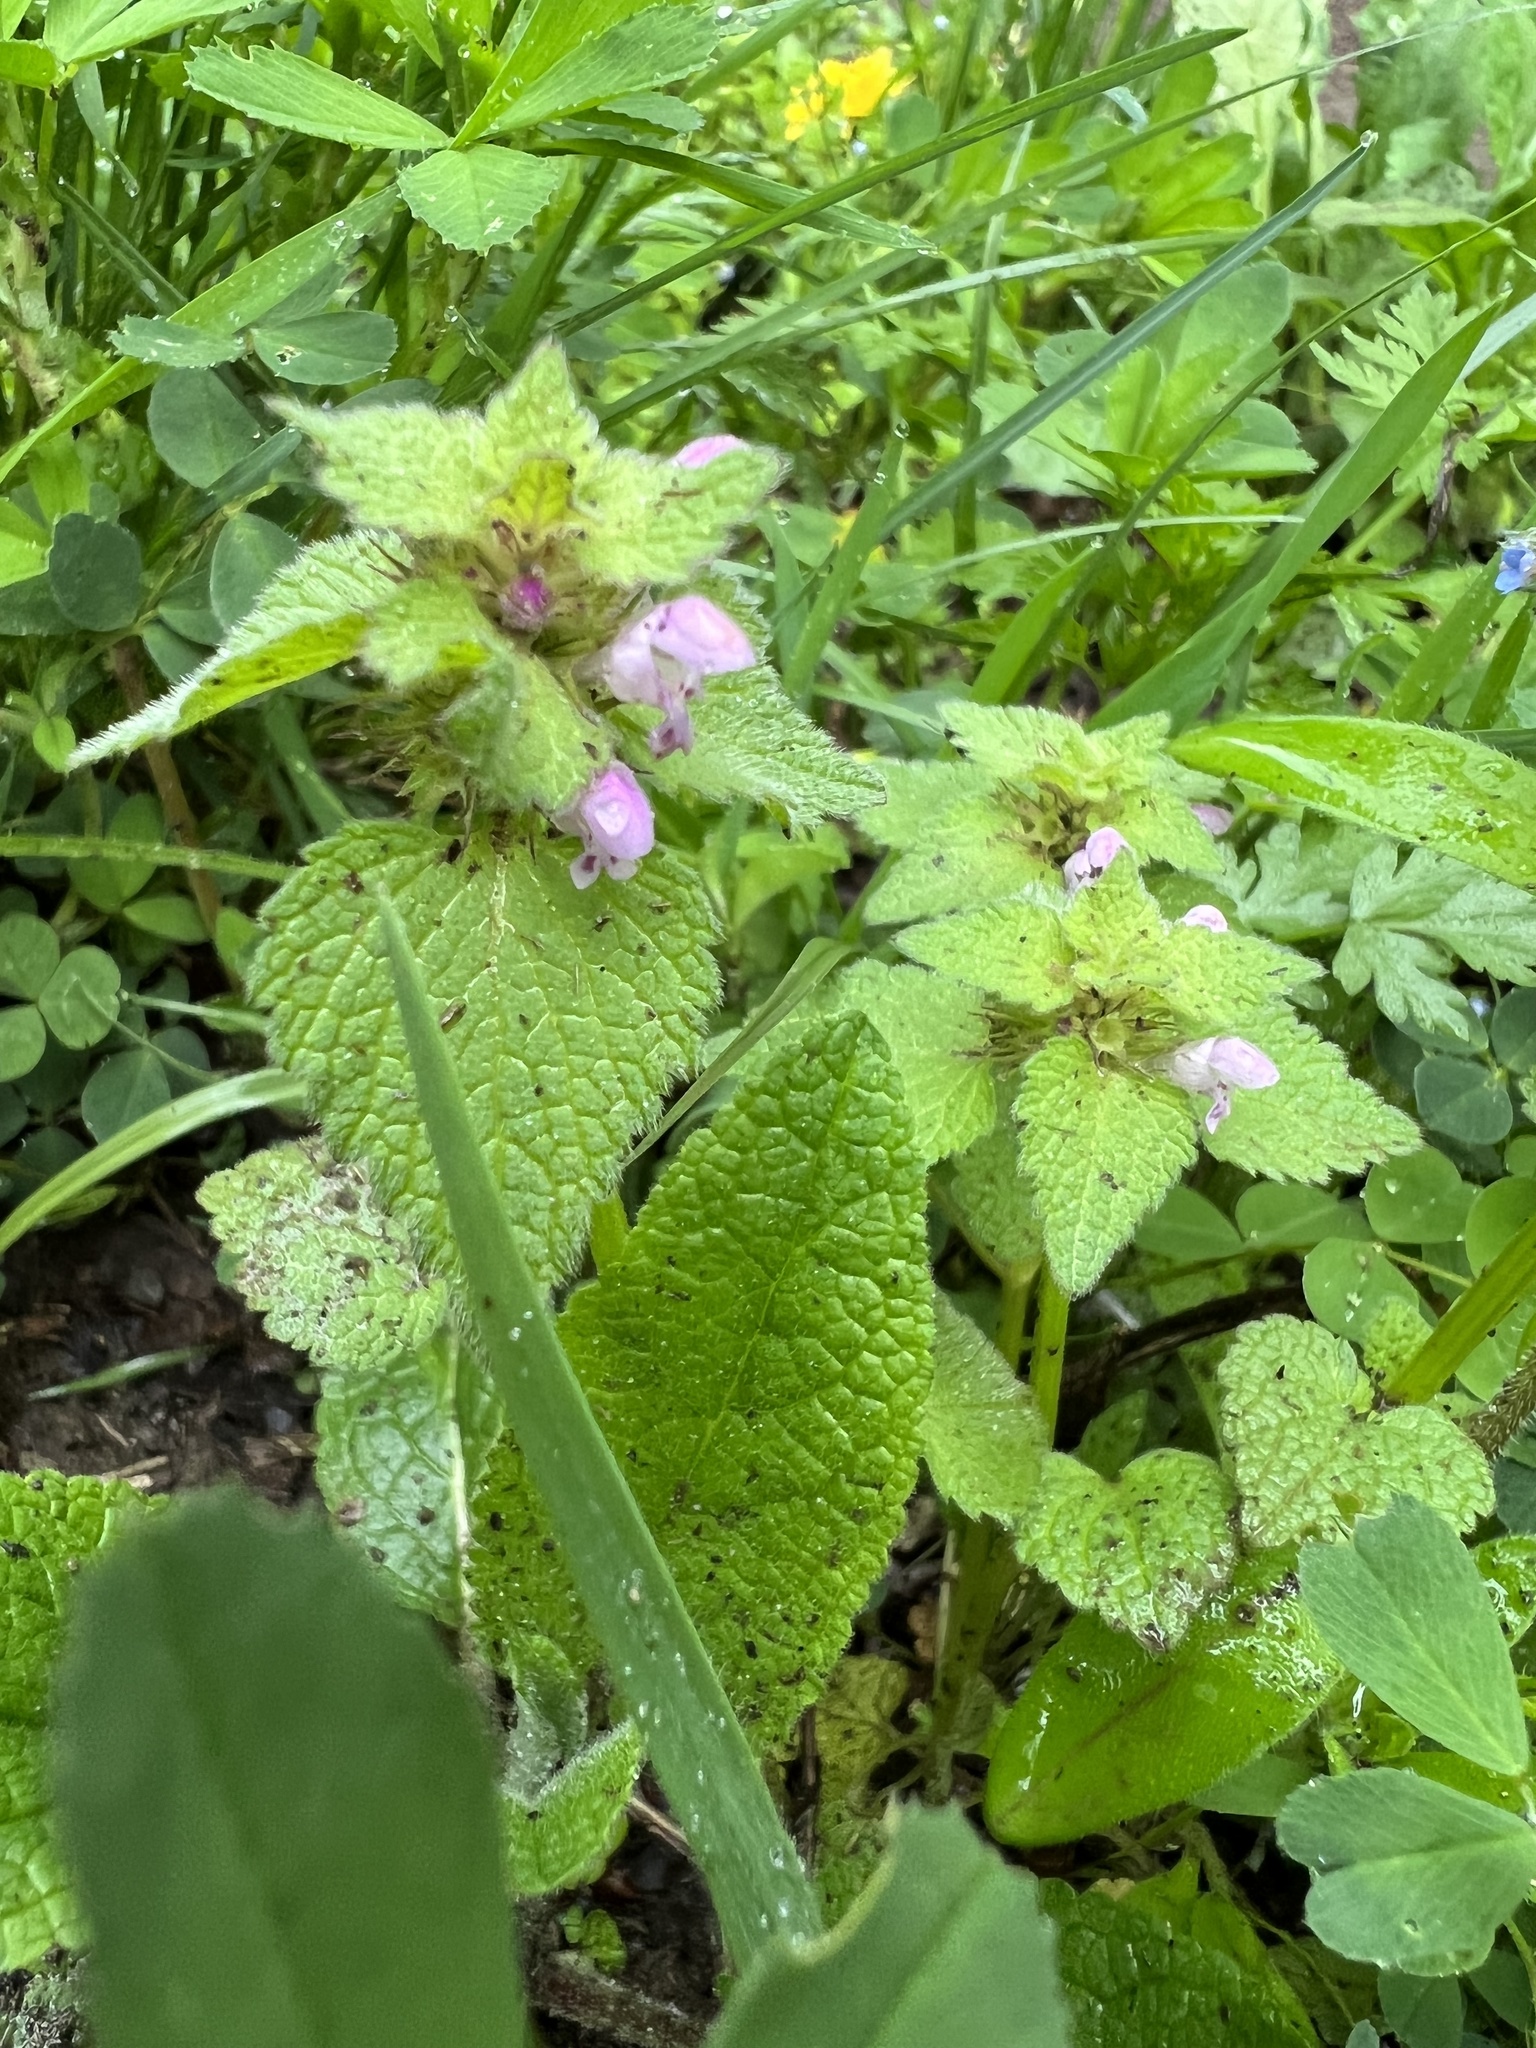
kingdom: Plantae
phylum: Tracheophyta
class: Magnoliopsida
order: Lamiales
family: Lamiaceae
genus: Lamium
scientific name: Lamium purpureum
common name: Red dead-nettle
